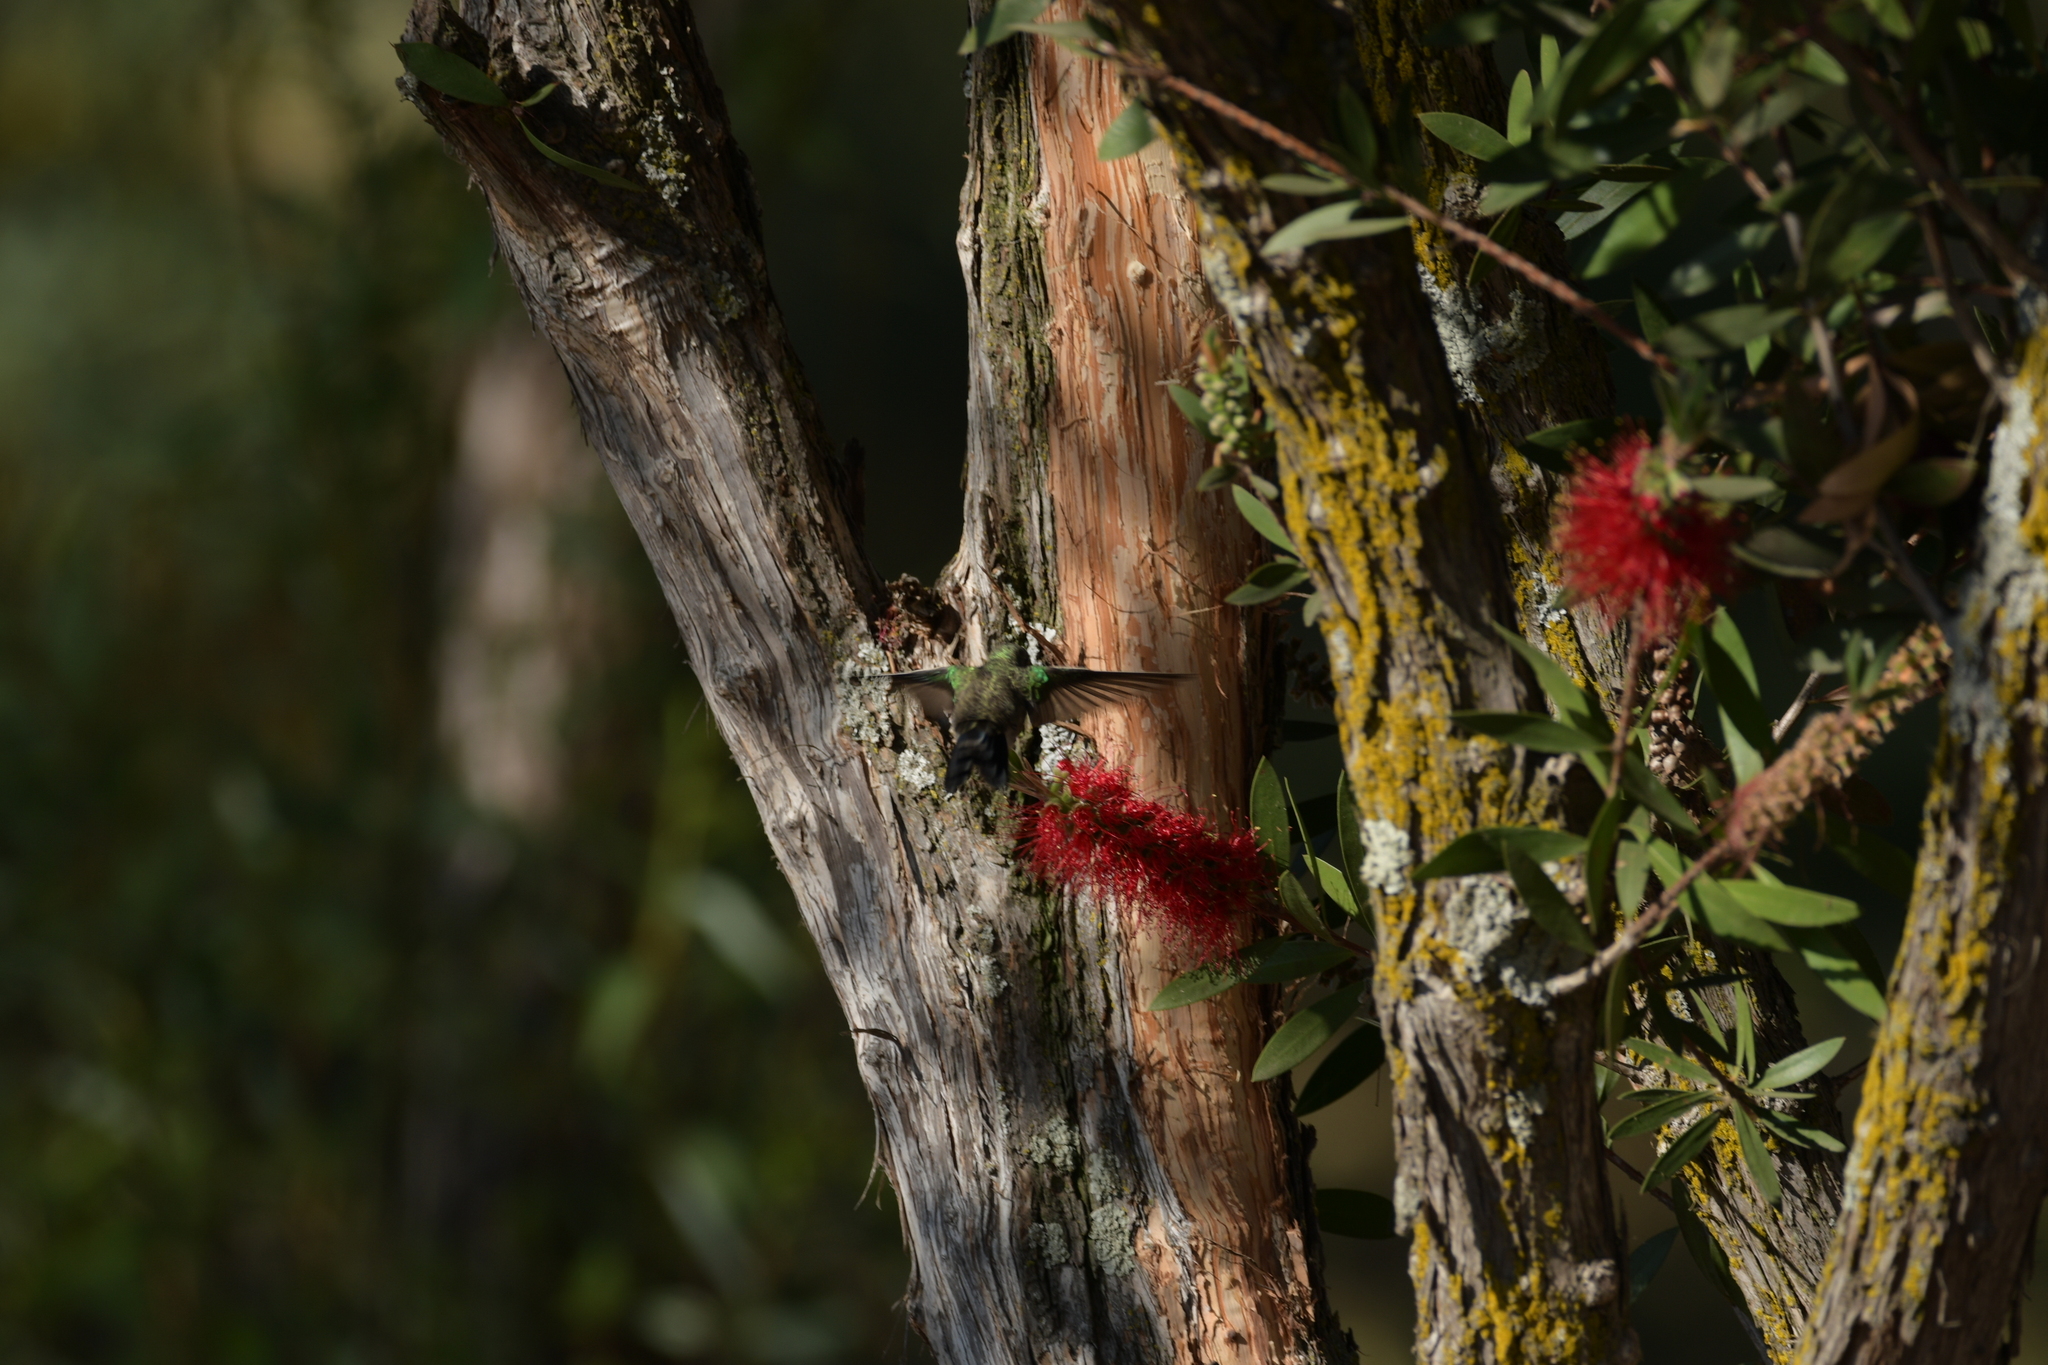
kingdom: Animalia
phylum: Chordata
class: Aves
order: Apodiformes
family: Trochilidae
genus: Cynanthus
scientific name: Cynanthus latirostris
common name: Broad-billed hummingbird
